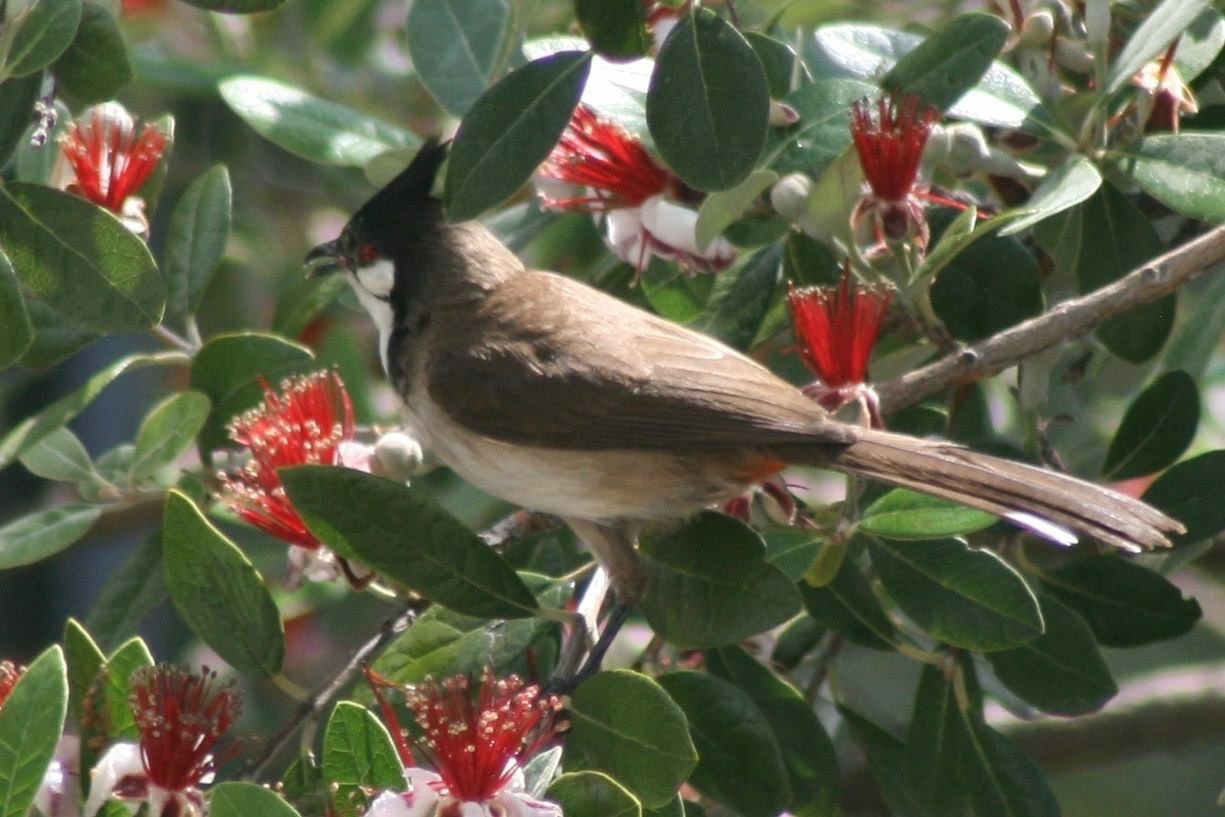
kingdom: Animalia
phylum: Chordata
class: Aves
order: Passeriformes
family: Pycnonotidae
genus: Pycnonotus
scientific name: Pycnonotus jocosus
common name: Red-whiskered bulbul
